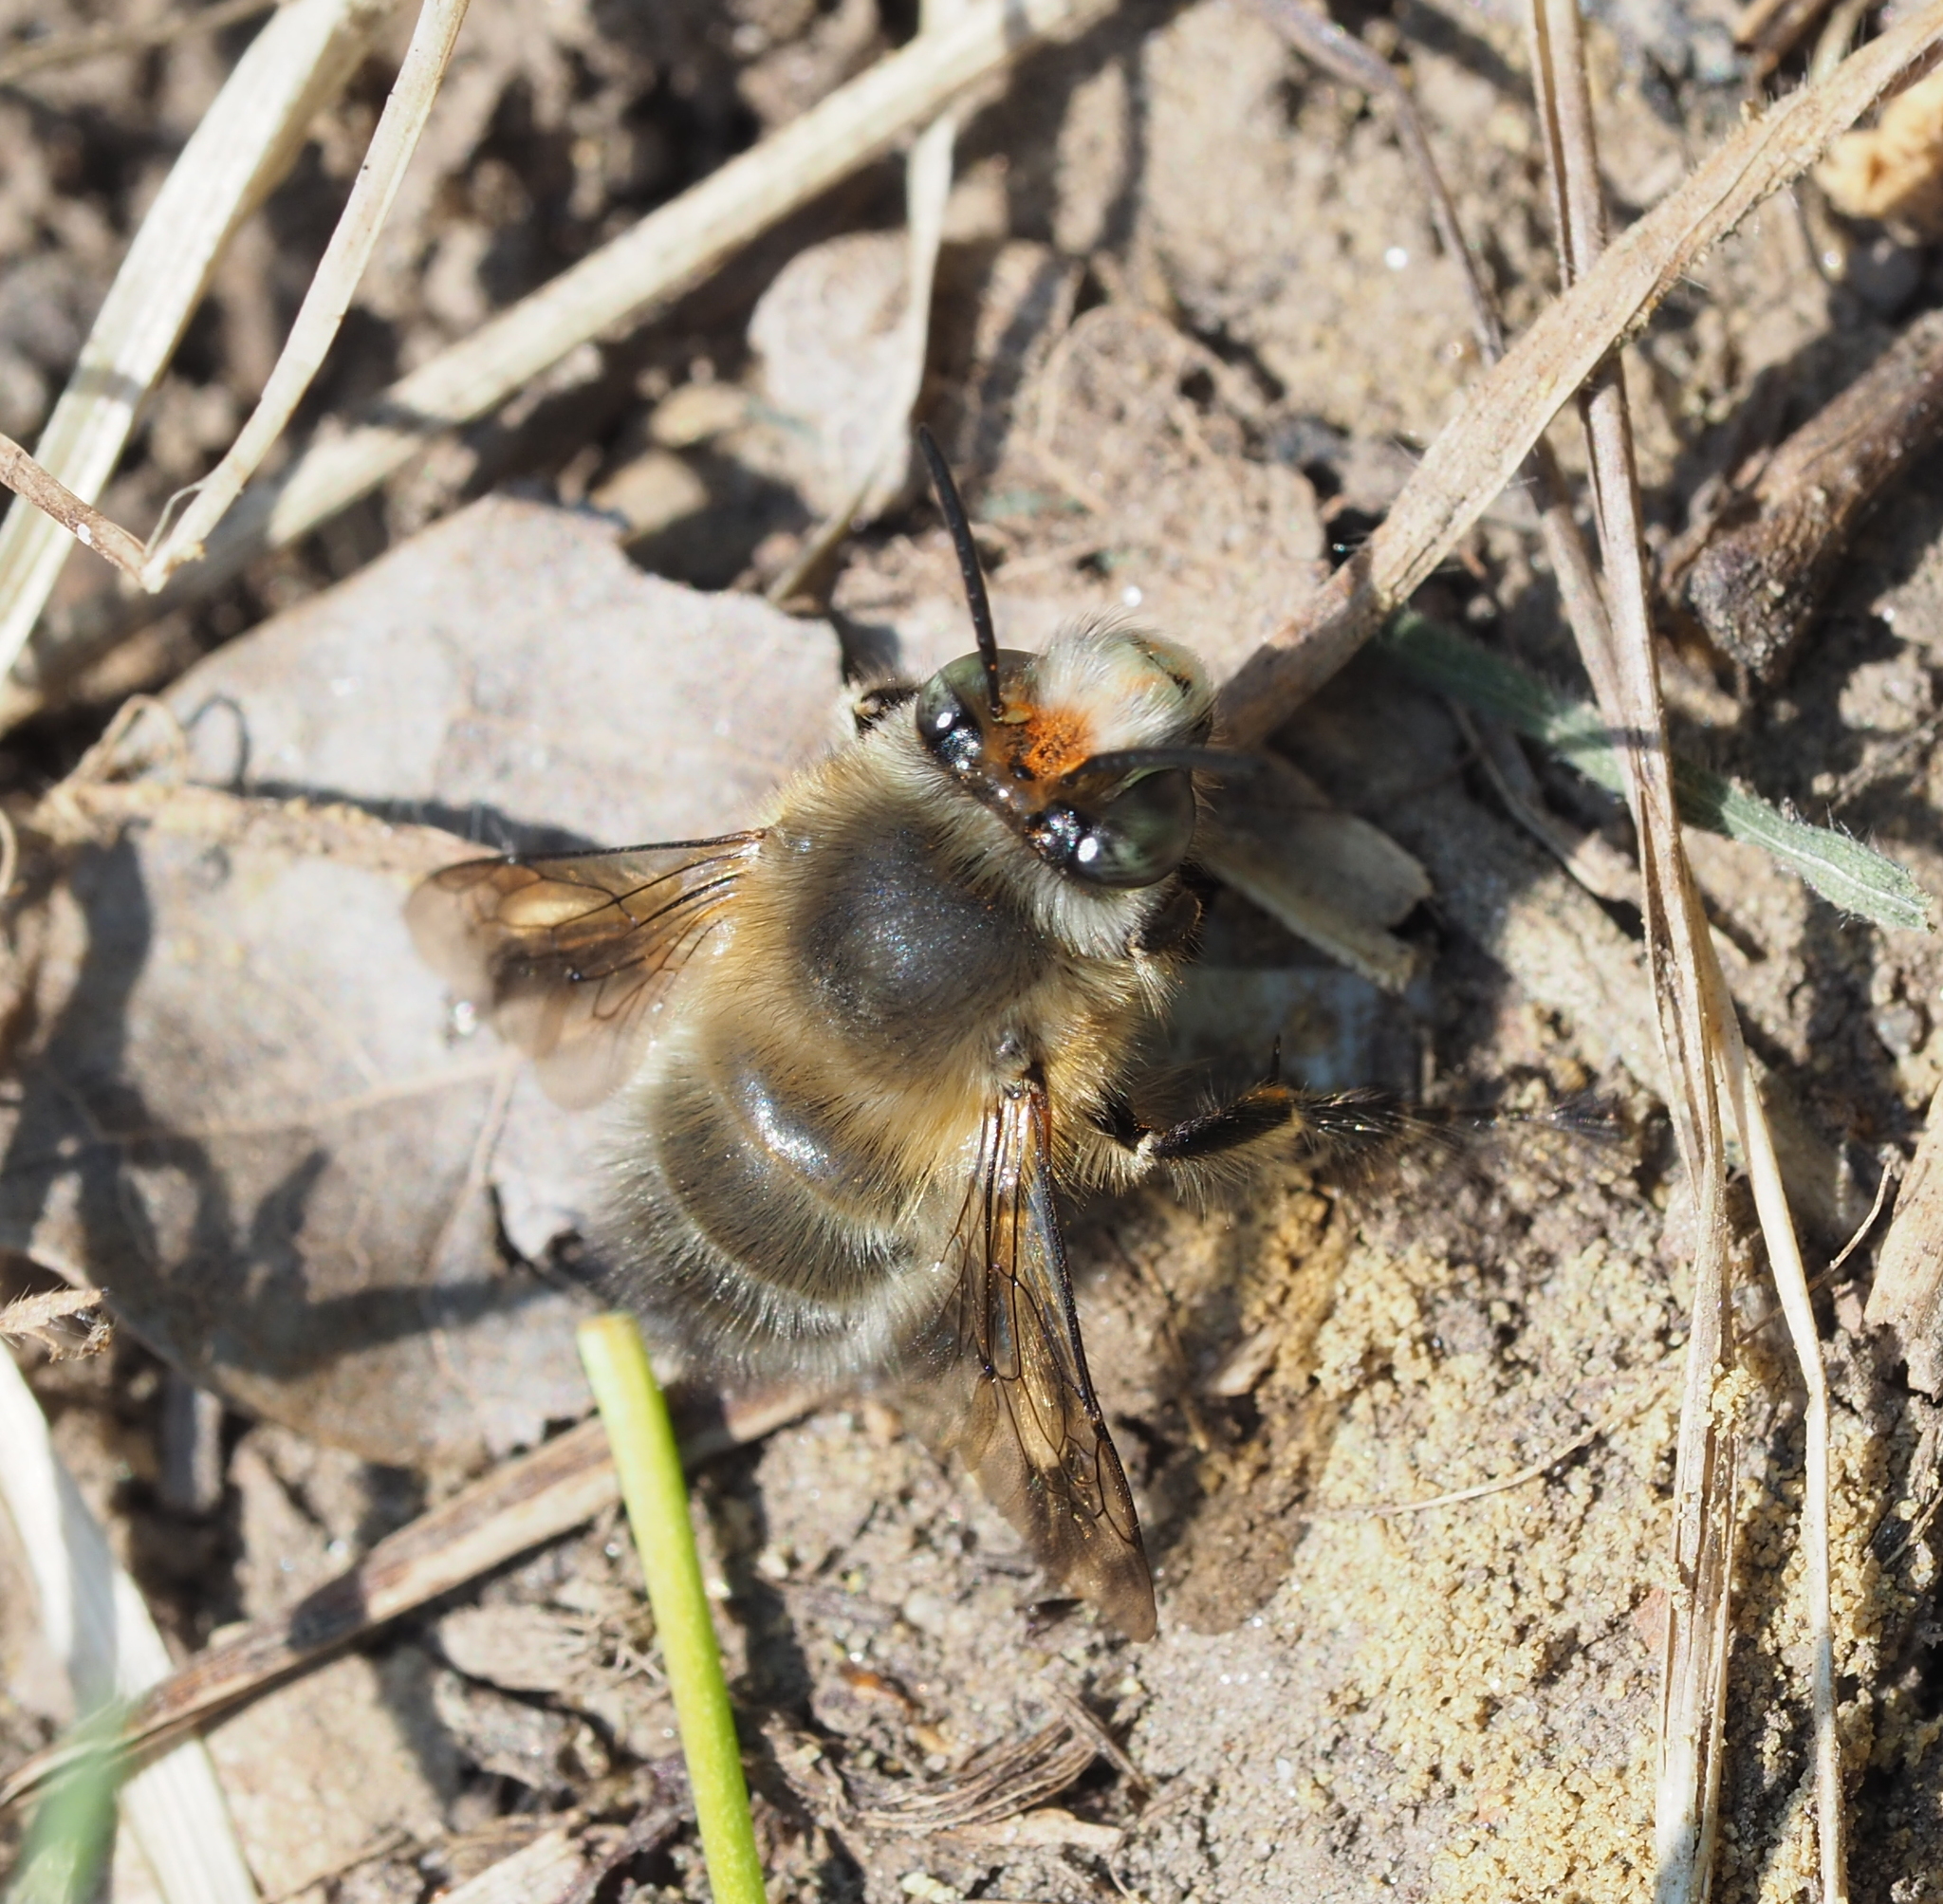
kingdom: Animalia
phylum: Arthropoda
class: Insecta
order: Hymenoptera
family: Apidae
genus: Anthophora
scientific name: Anthophora plumipes
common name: Hairy-footed flower bee
